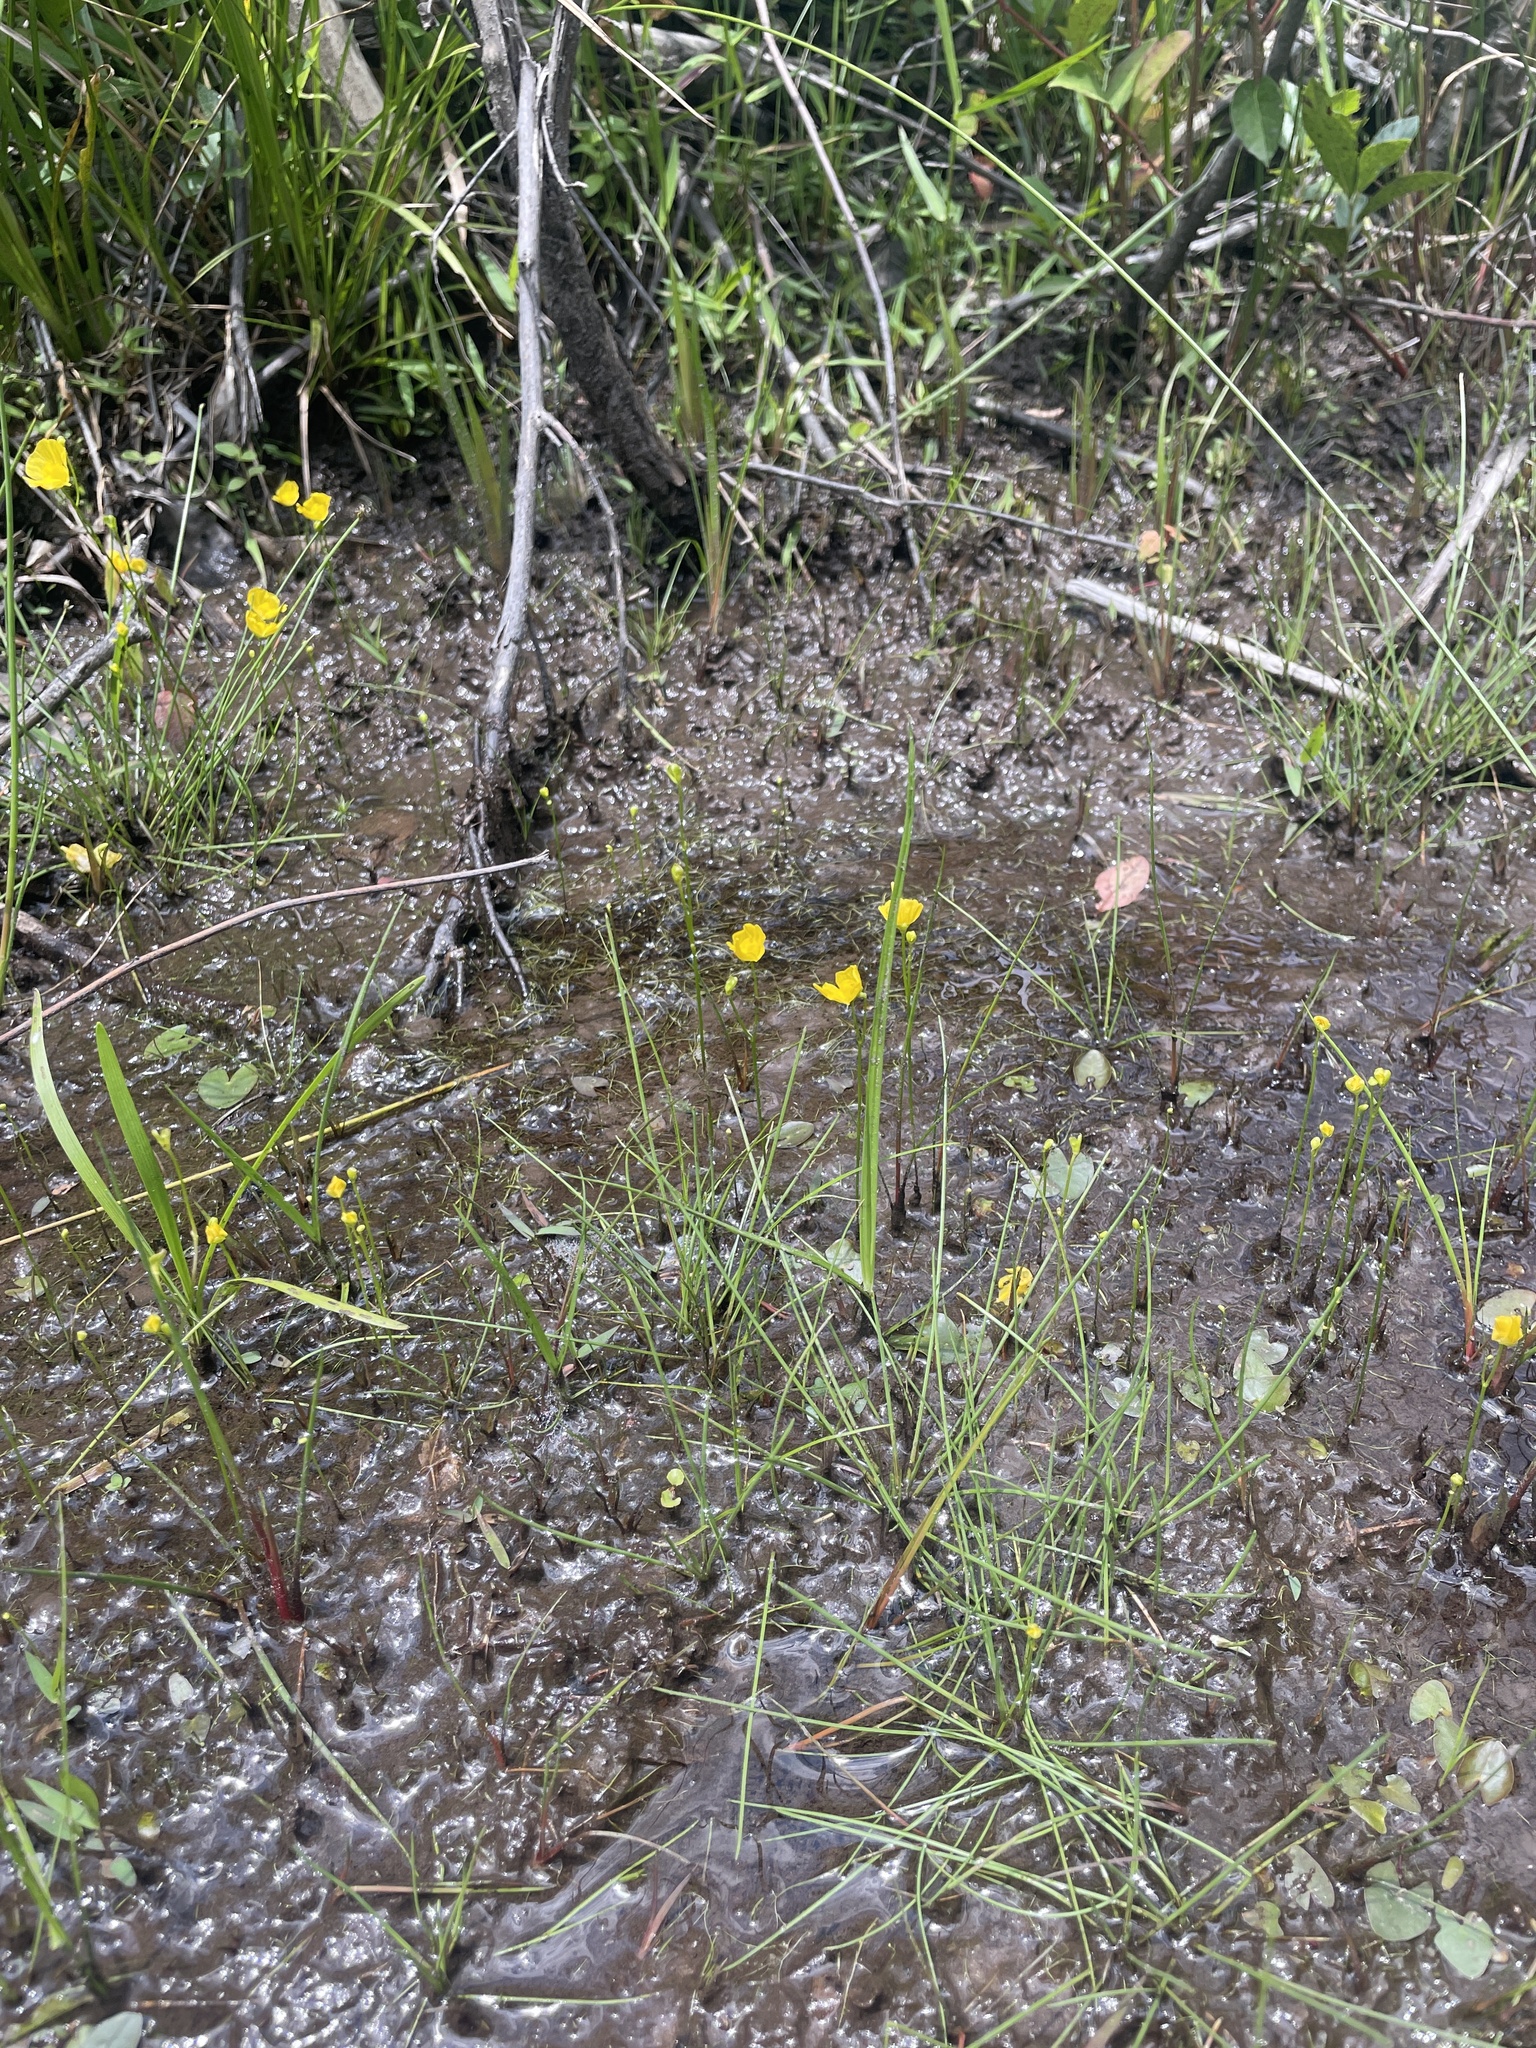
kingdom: Plantae
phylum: Tracheophyta
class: Magnoliopsida
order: Lamiales
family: Lentibulariaceae
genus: Utricularia
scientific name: Utricularia gibba
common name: Humped bladderwort
